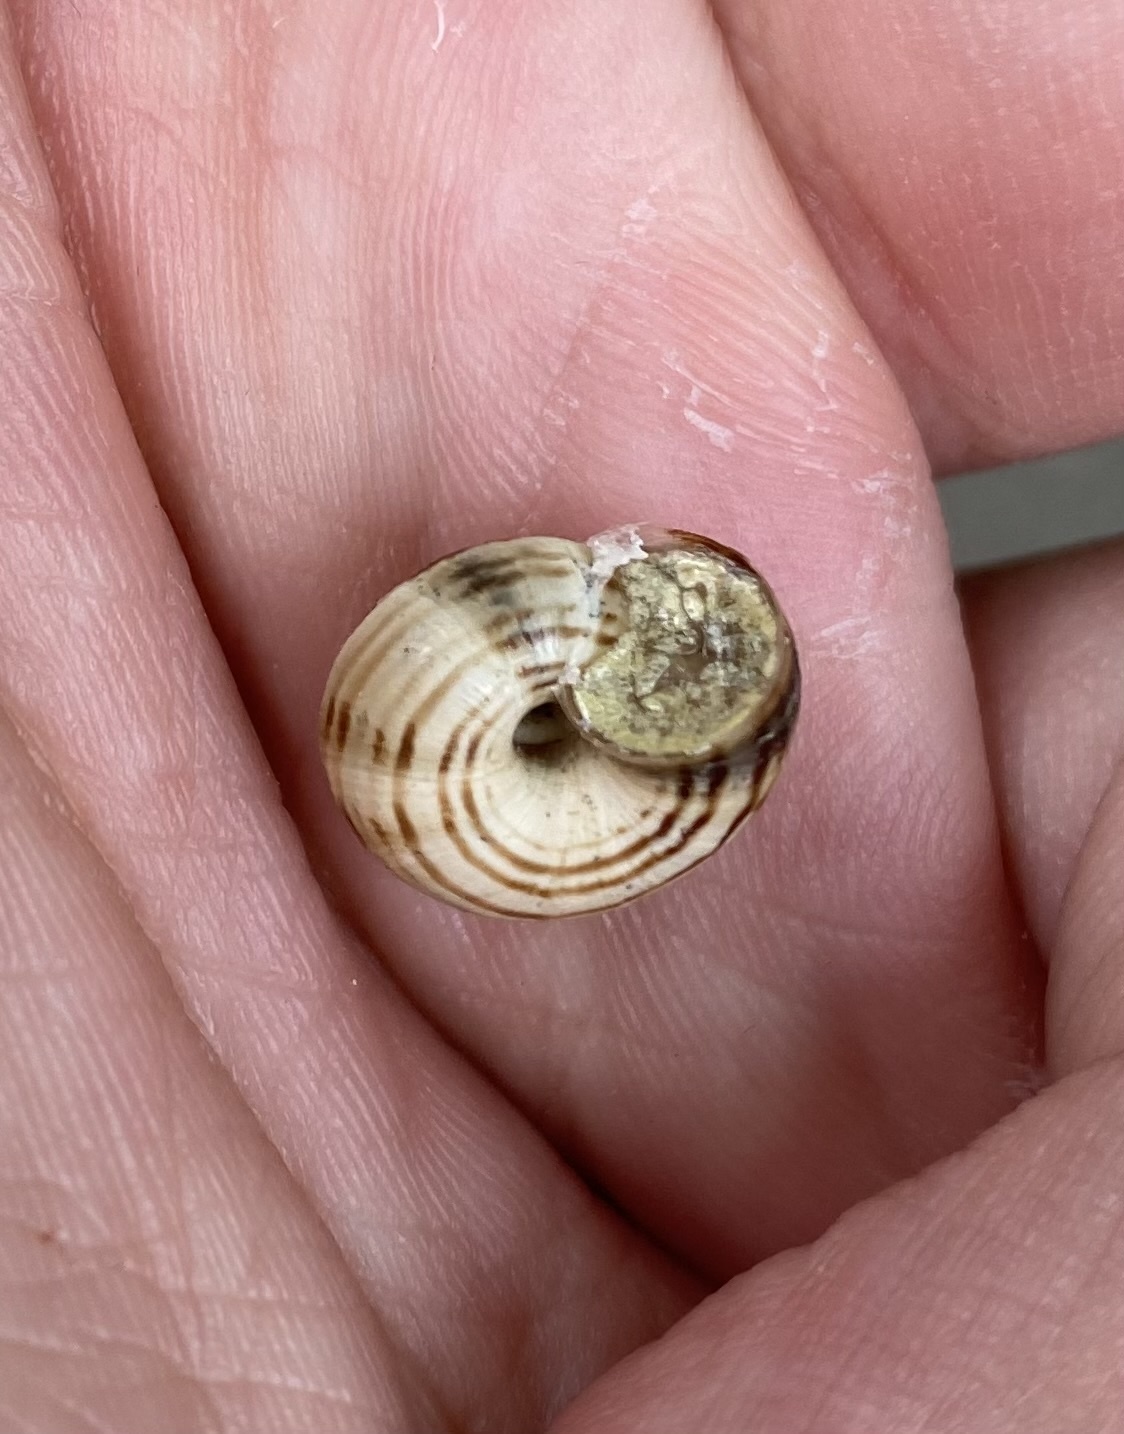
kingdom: Animalia
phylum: Mollusca
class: Gastropoda
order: Stylommatophora
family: Geomitridae
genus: Xeropicta
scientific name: Xeropicta derbentina
